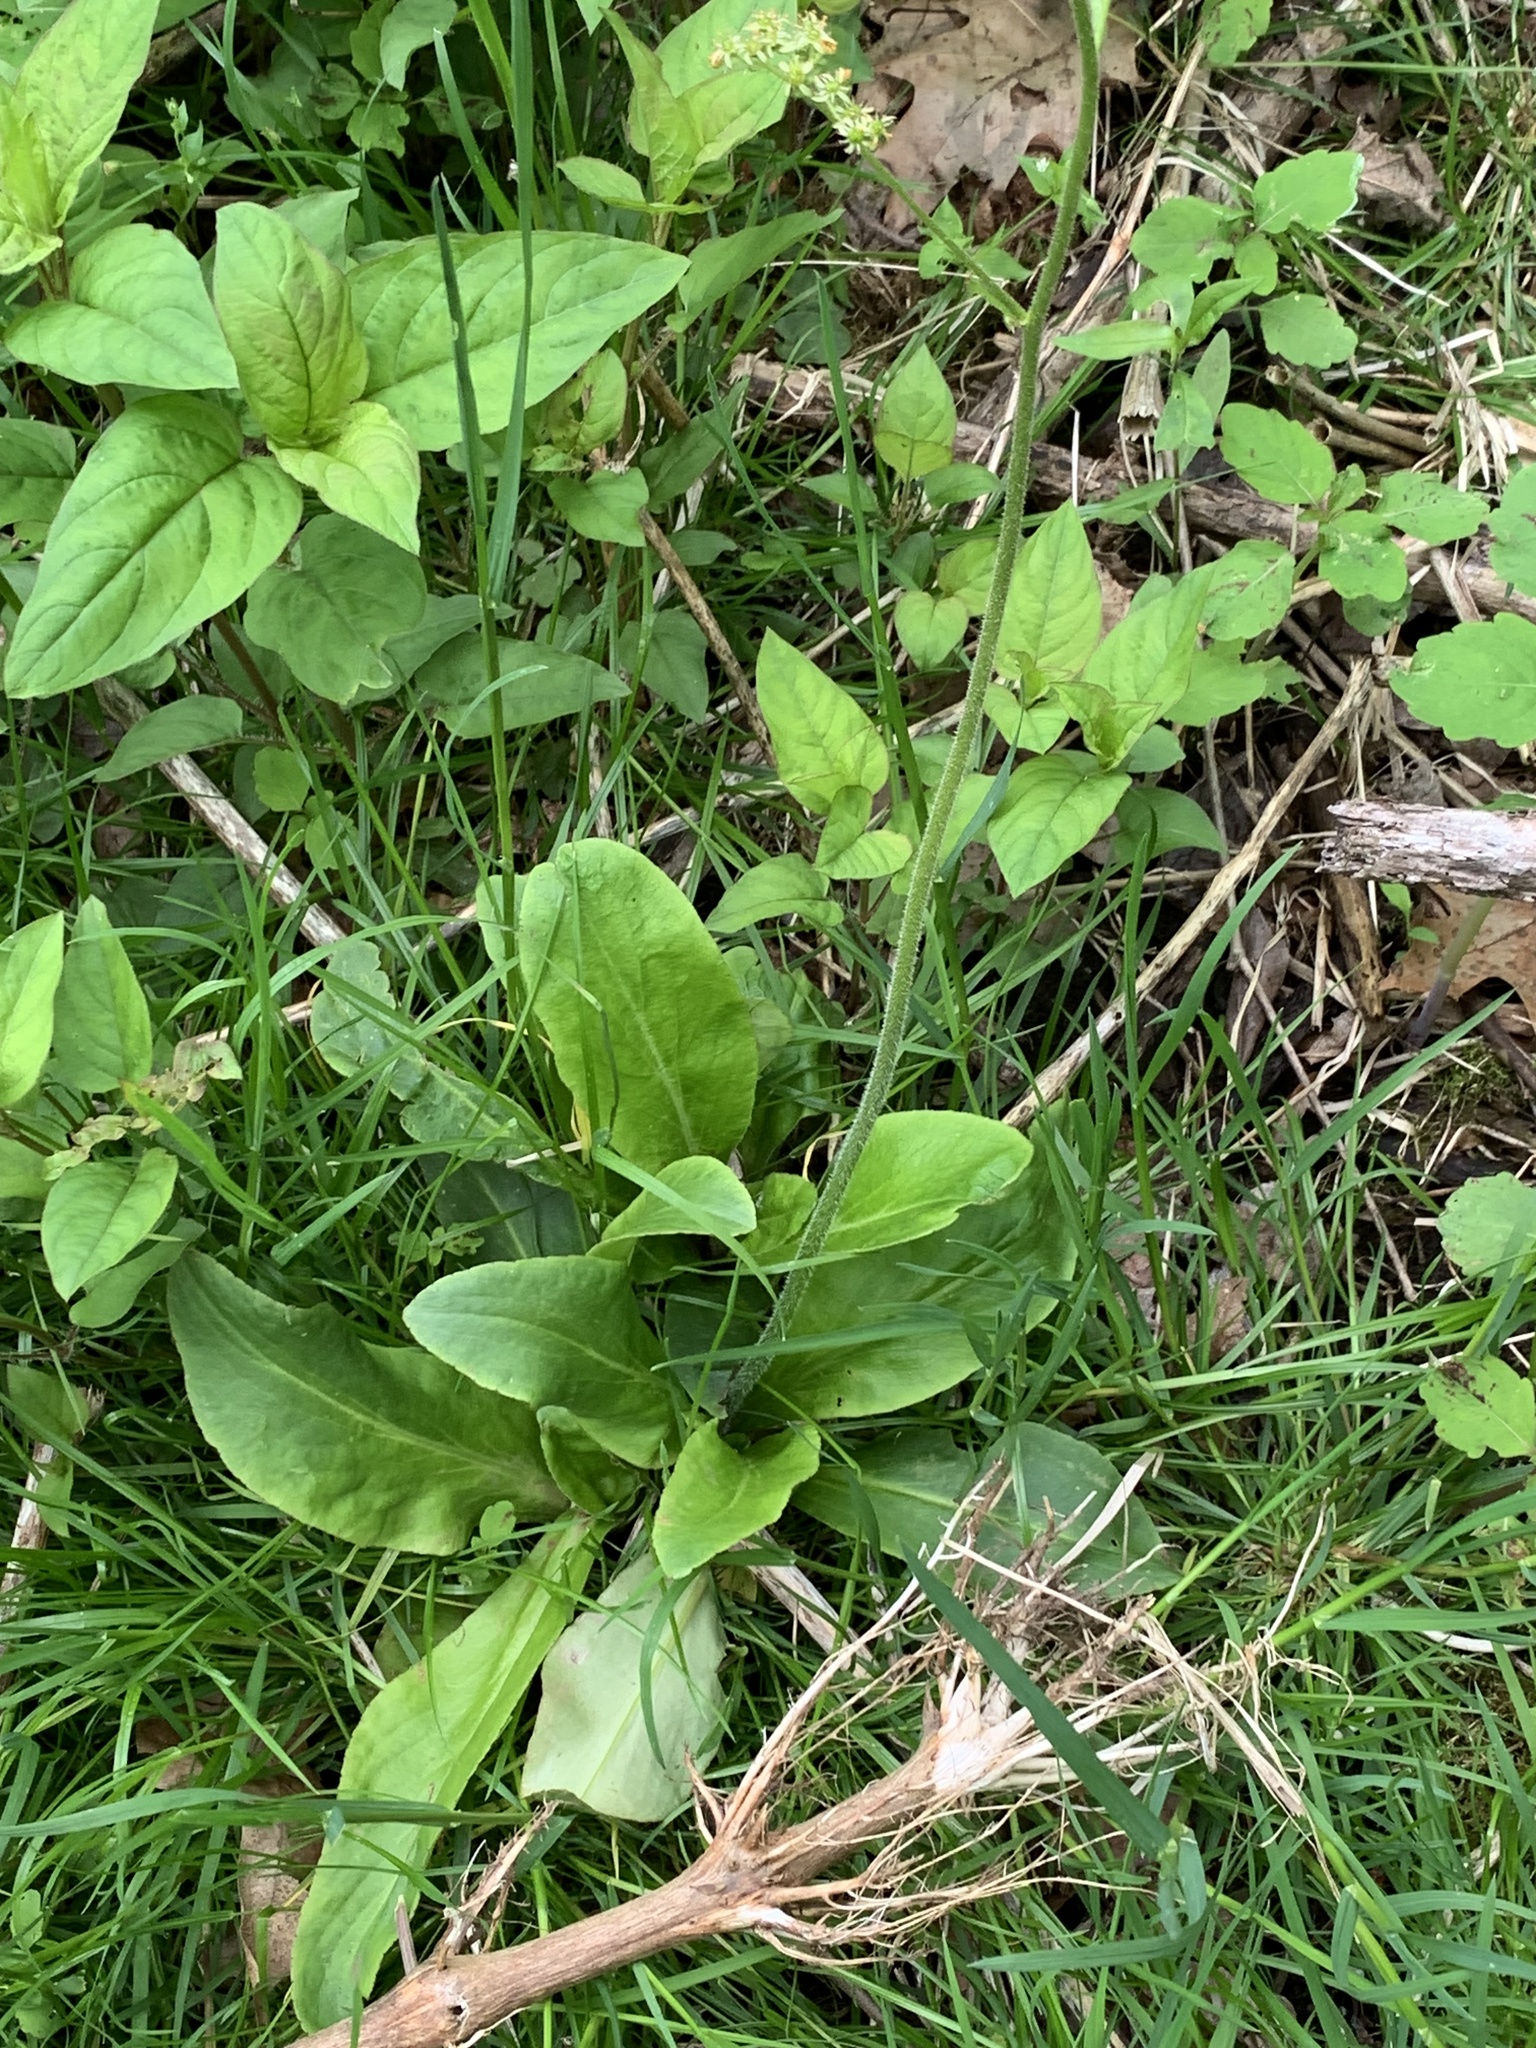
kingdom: Plantae
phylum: Tracheophyta
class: Magnoliopsida
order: Saxifragales
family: Saxifragaceae
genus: Micranthes
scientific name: Micranthes pensylvanica
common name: Marsh saxifrage
